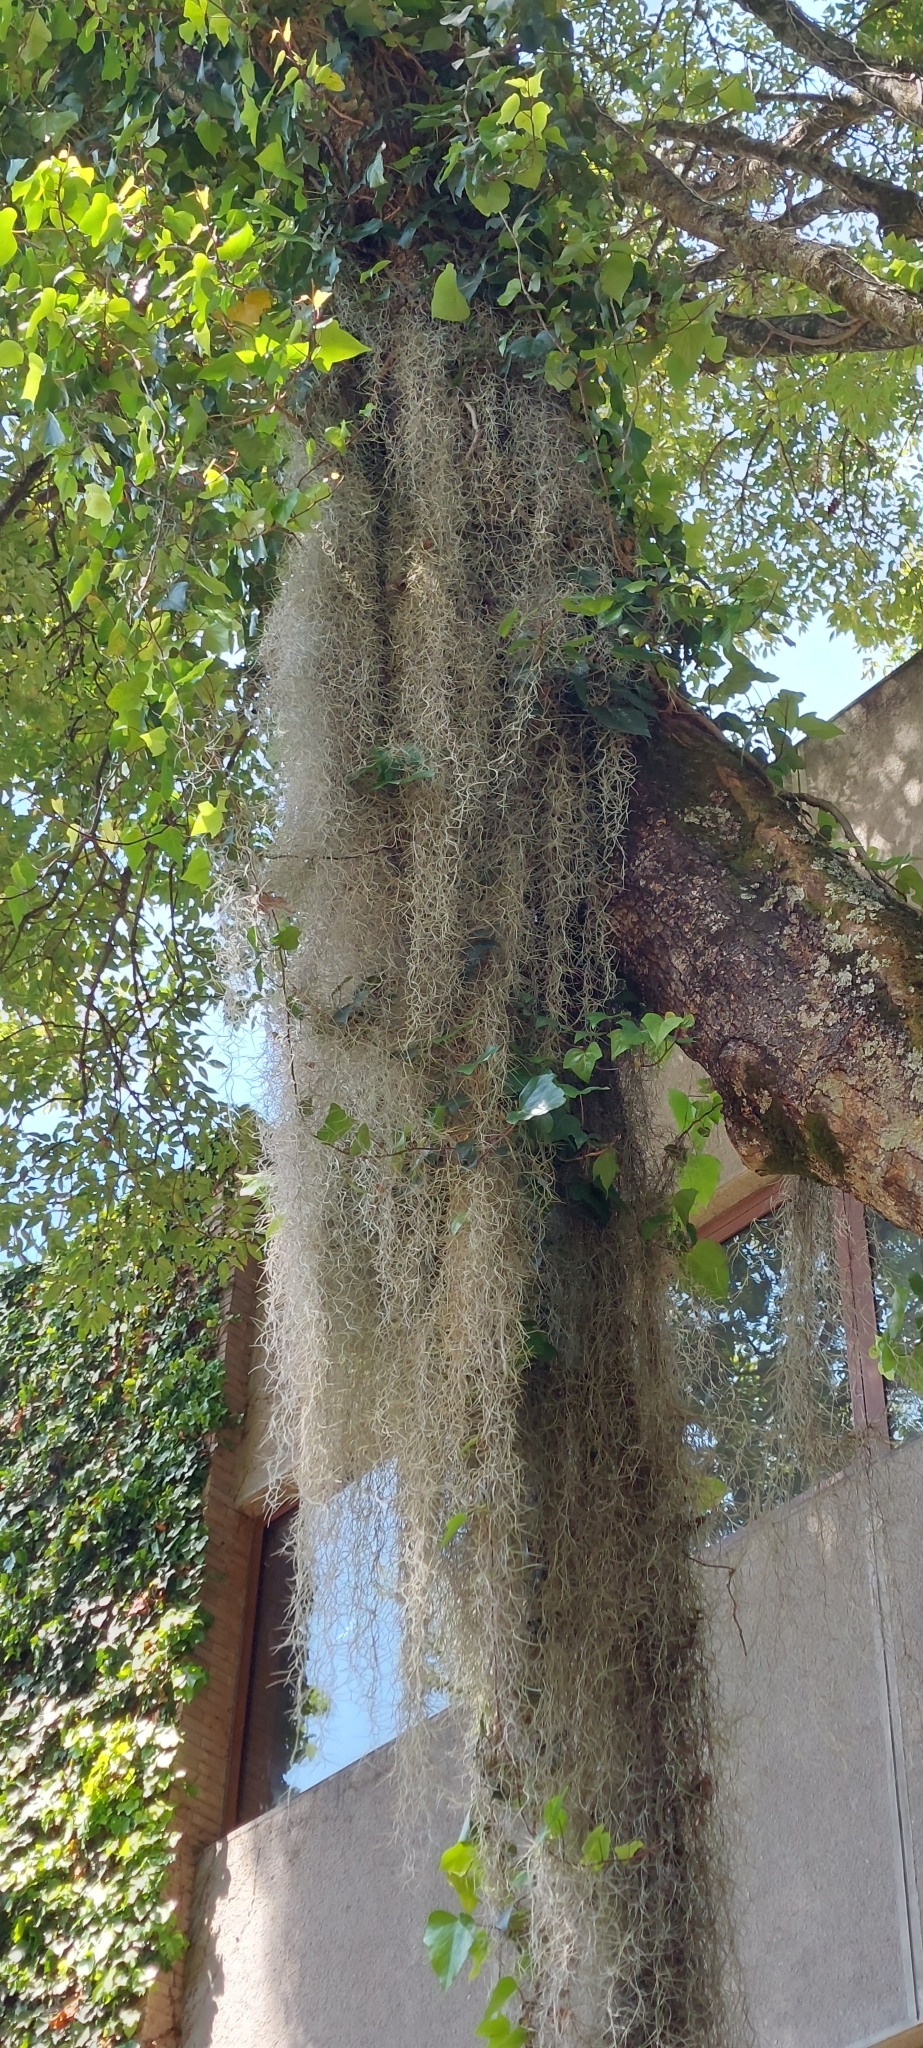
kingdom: Plantae
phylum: Tracheophyta
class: Liliopsida
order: Poales
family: Bromeliaceae
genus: Tillandsia
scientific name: Tillandsia usneoides
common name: Spanish moss
